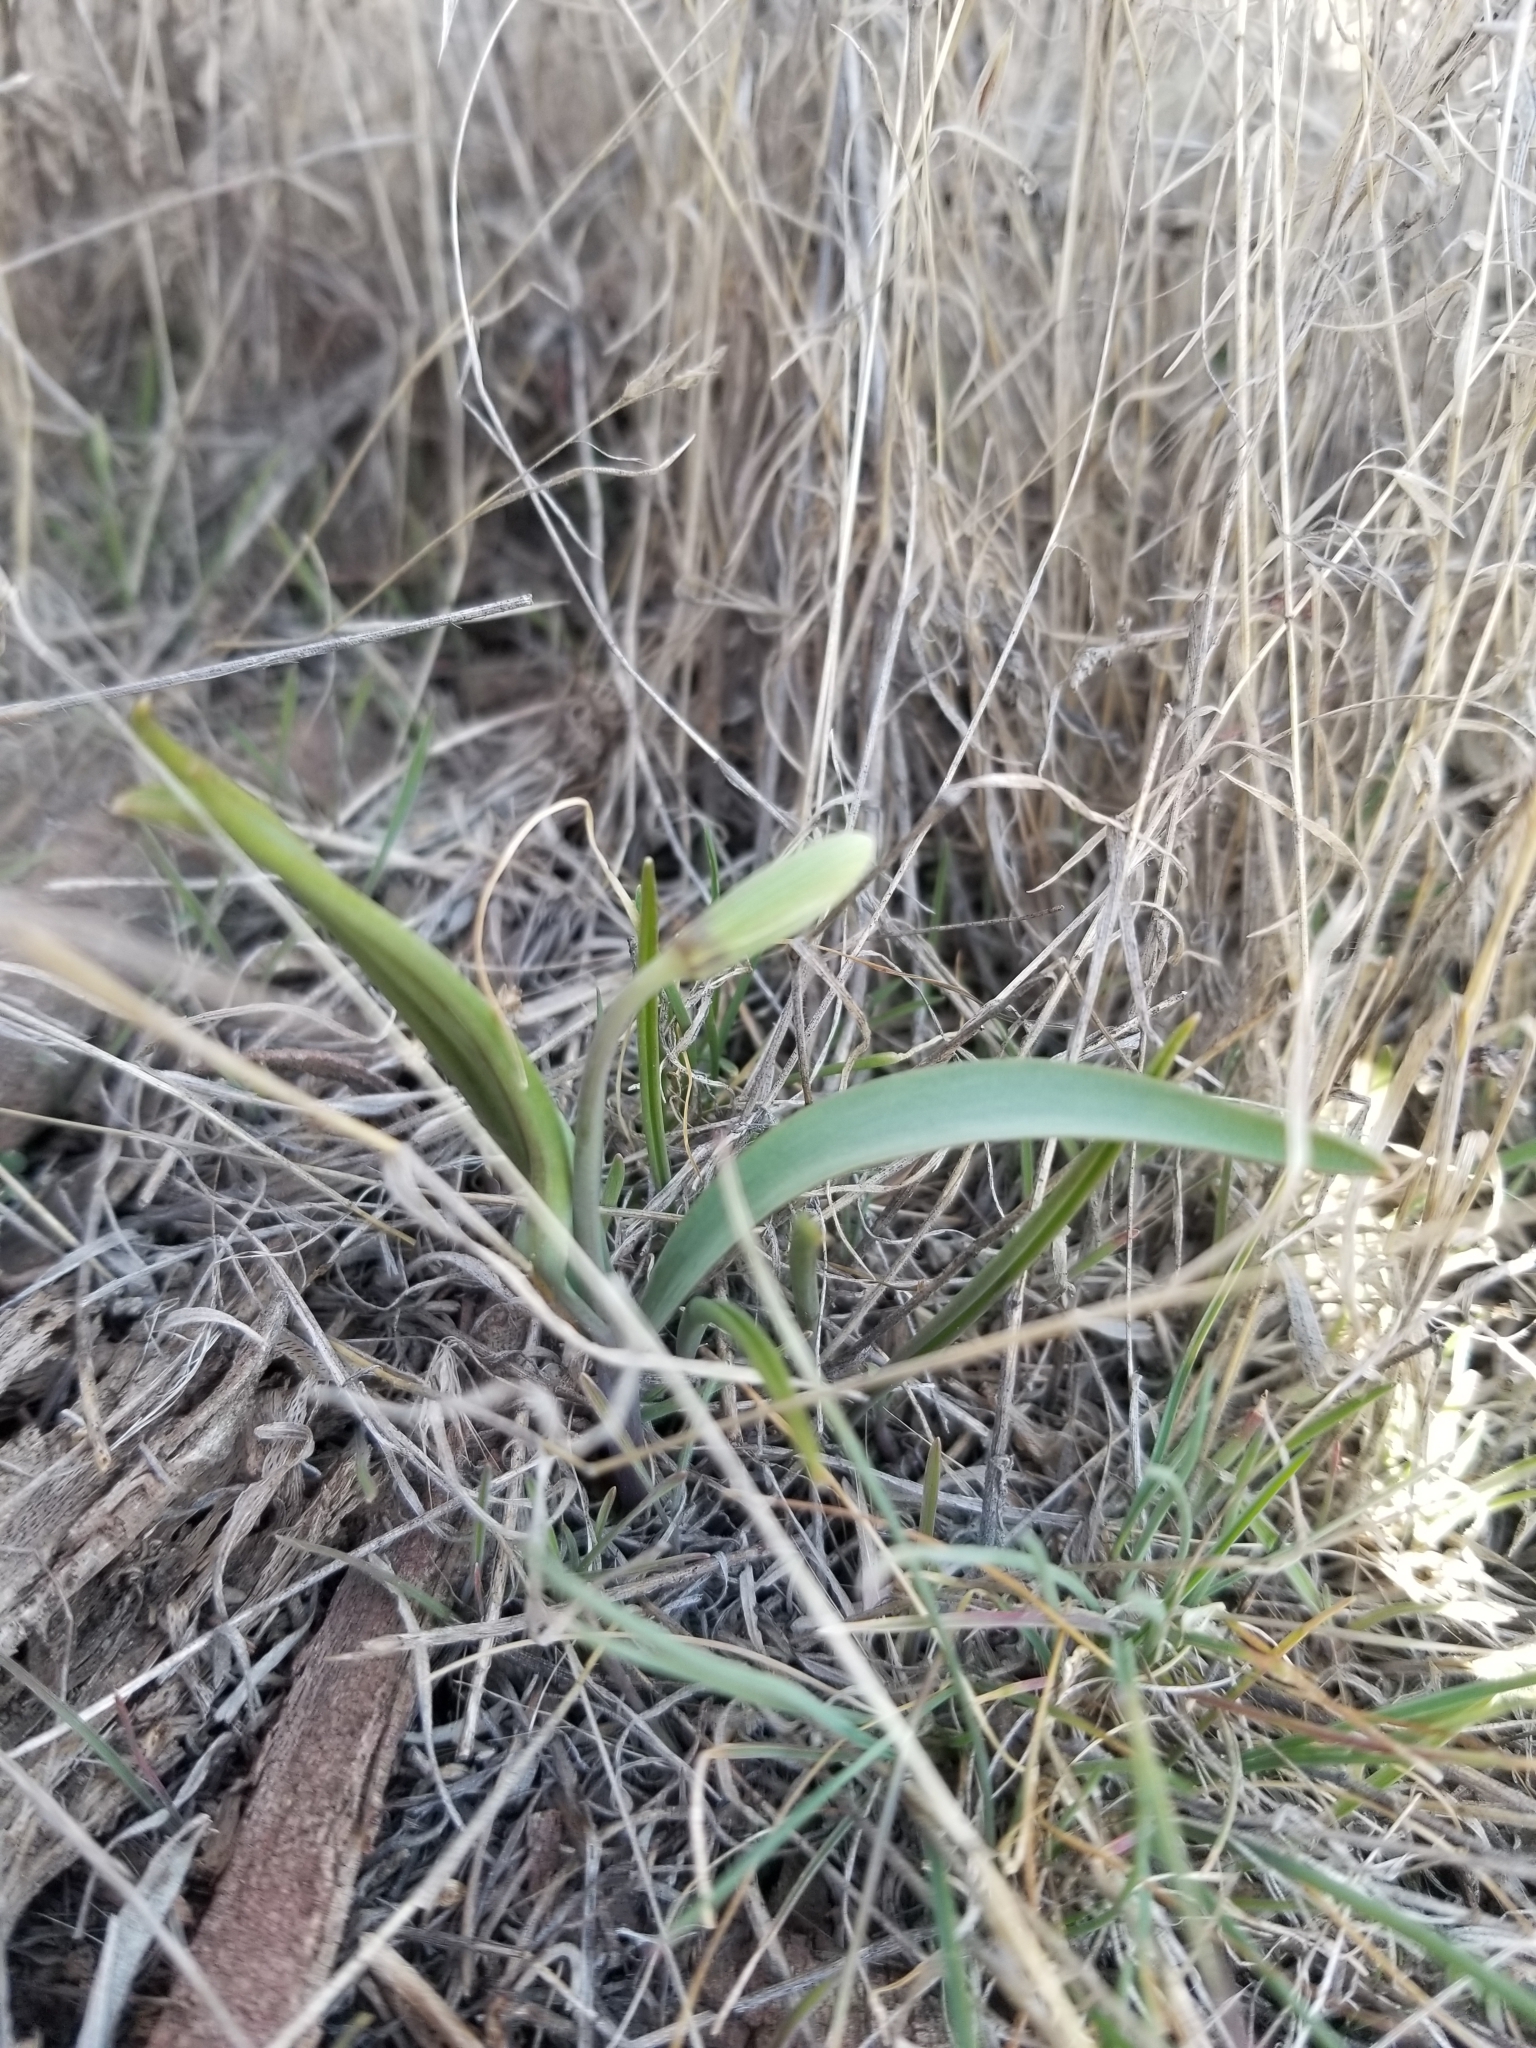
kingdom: Plantae
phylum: Tracheophyta
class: Liliopsida
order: Liliales
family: Liliaceae
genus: Fritillaria
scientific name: Fritillaria pudica
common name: Yellow fritillary
